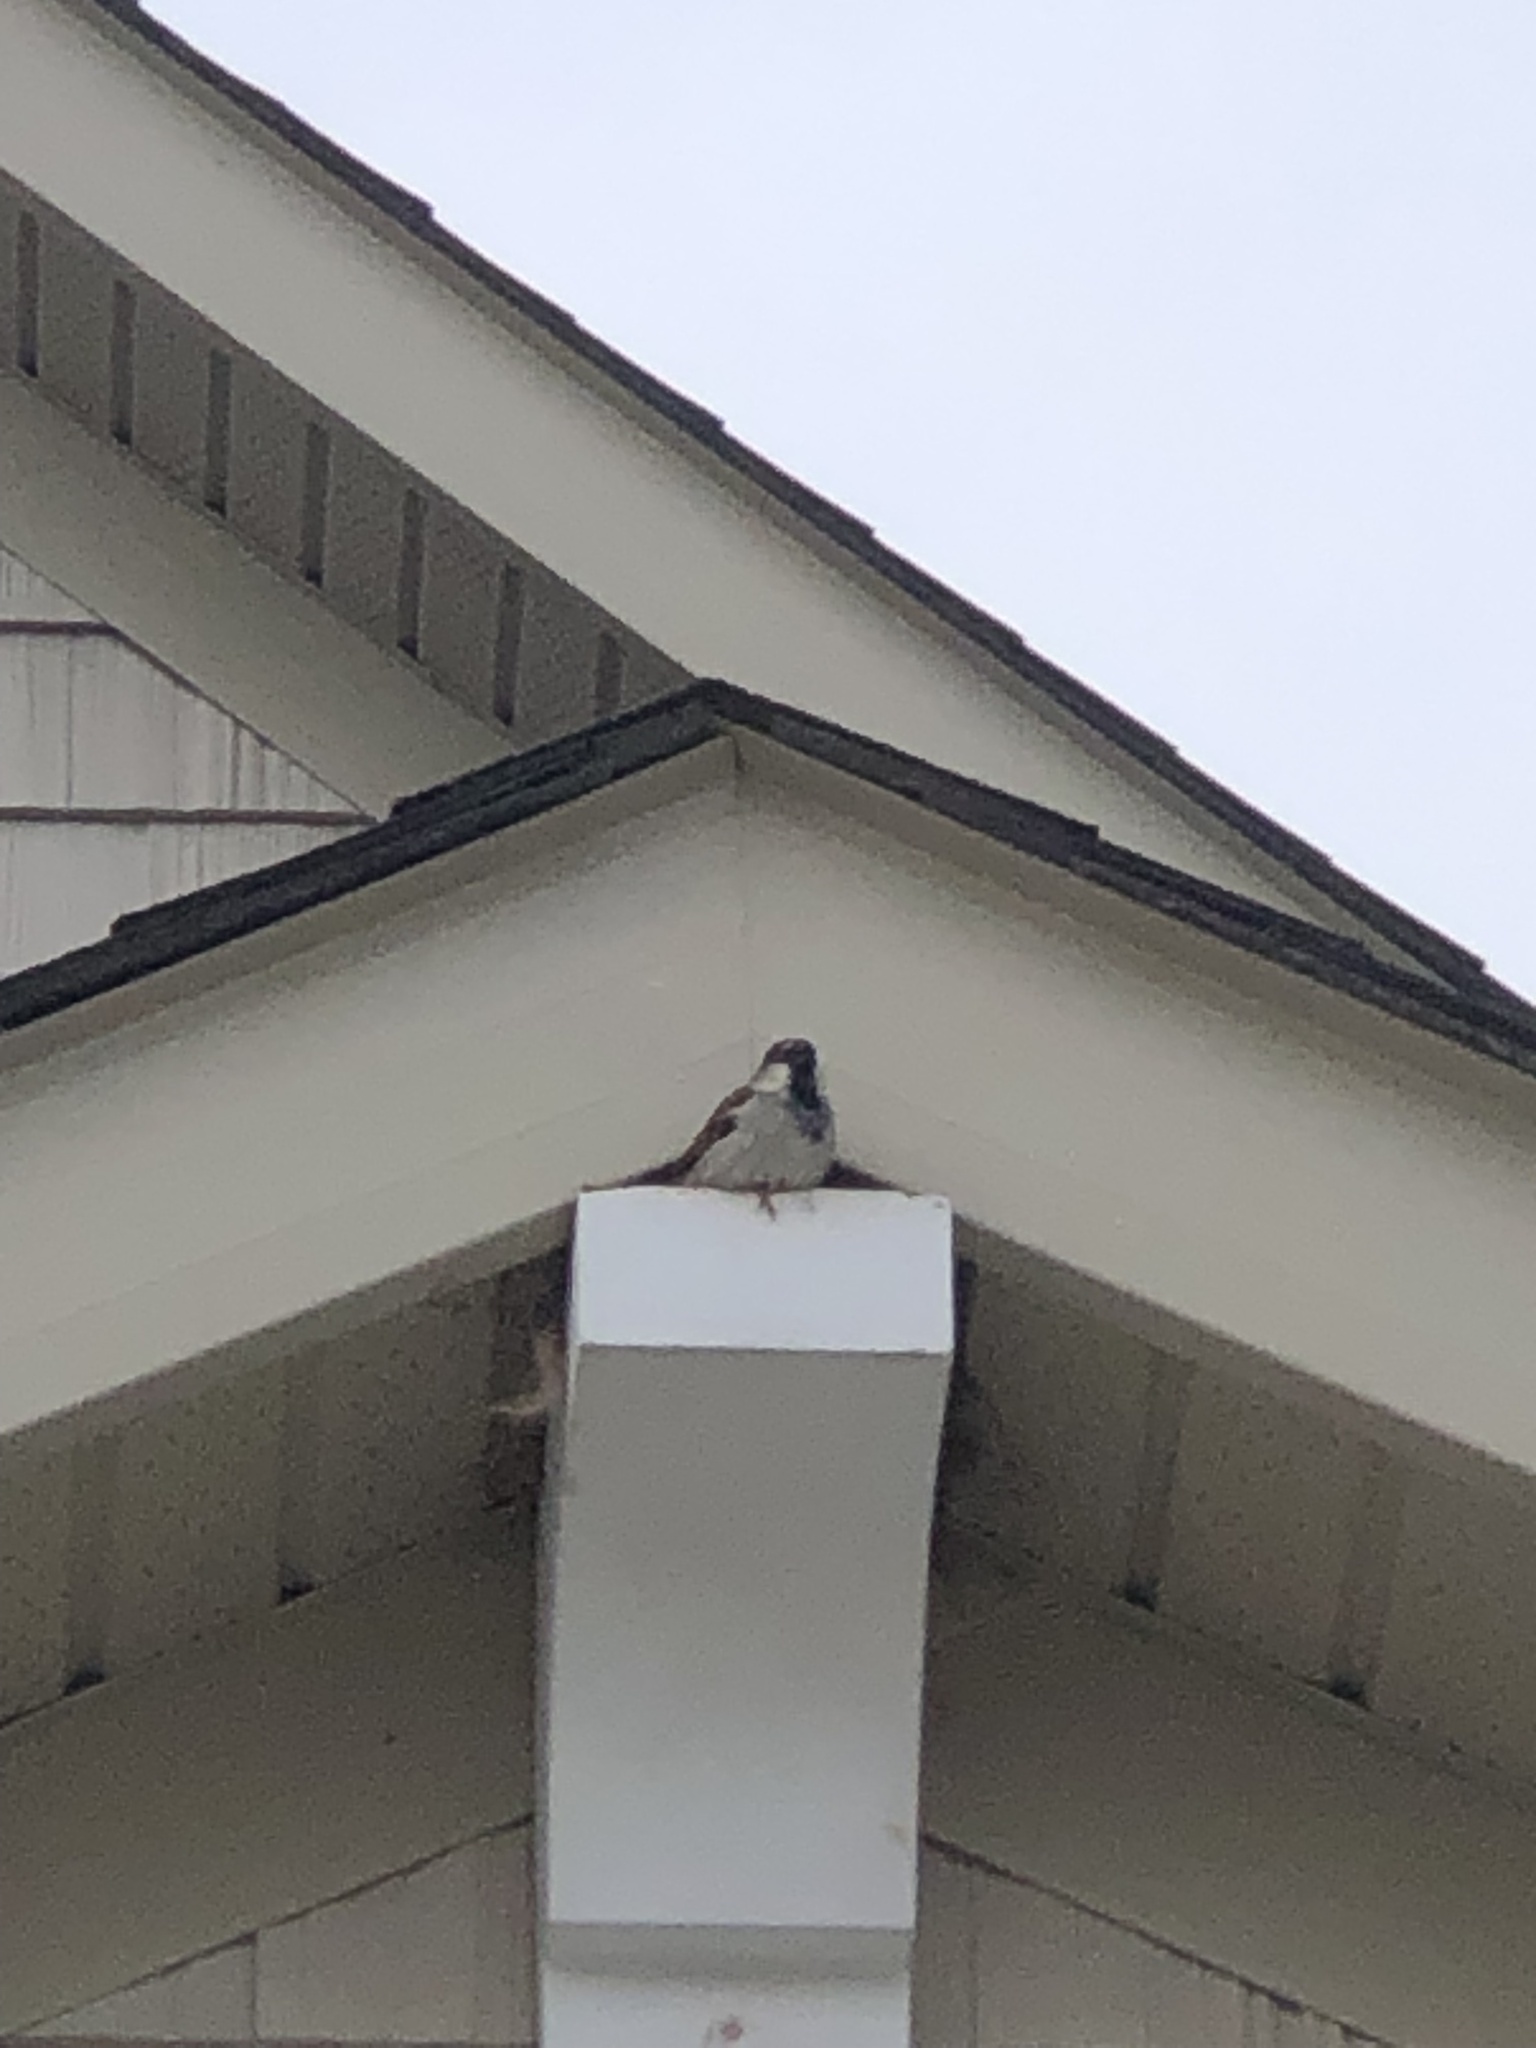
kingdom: Animalia
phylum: Chordata
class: Aves
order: Passeriformes
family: Passeridae
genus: Passer
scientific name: Passer domesticus
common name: House sparrow
